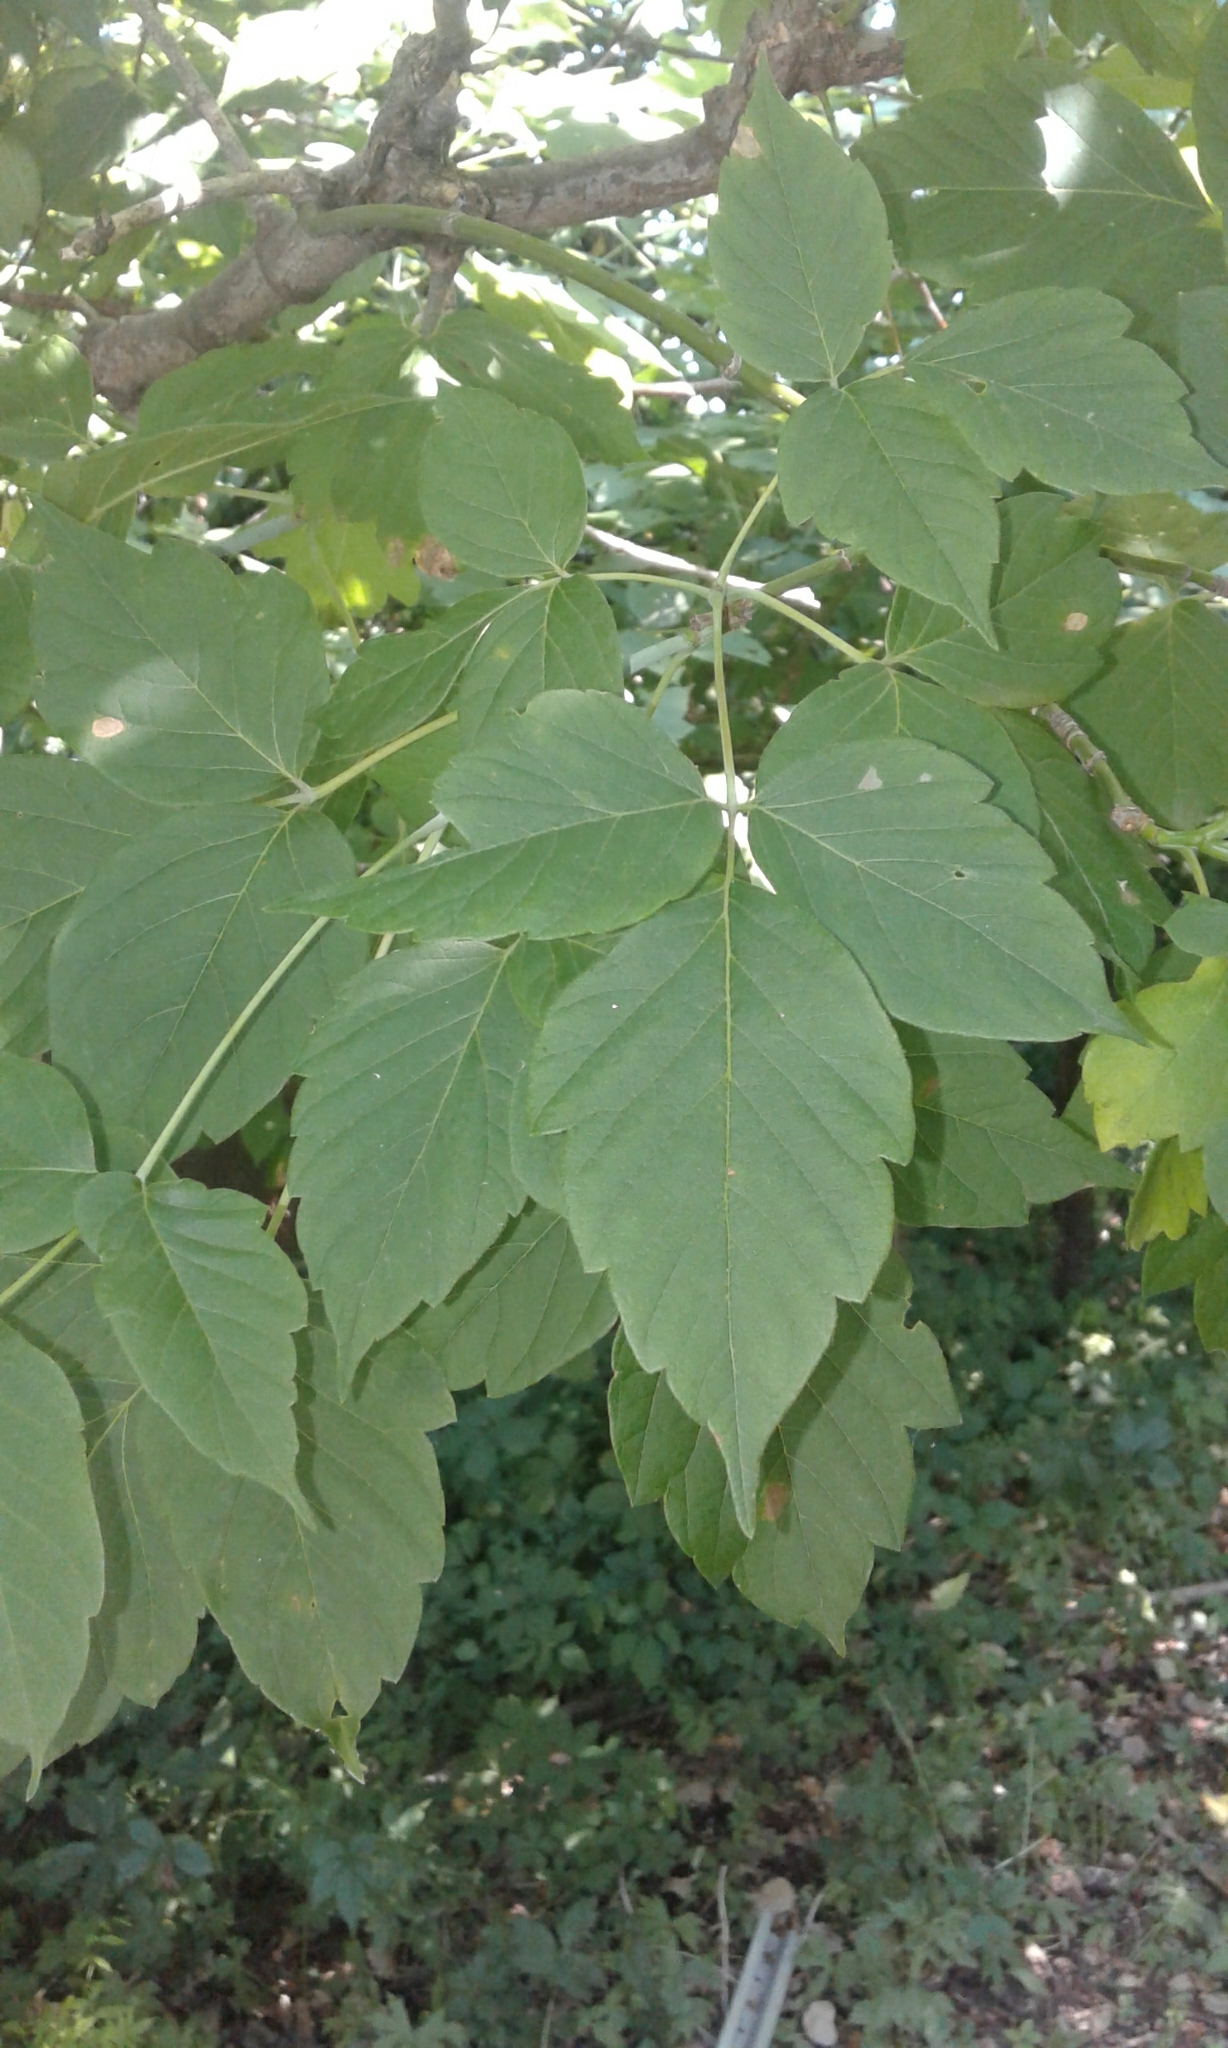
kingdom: Plantae
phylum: Tracheophyta
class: Magnoliopsida
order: Sapindales
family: Sapindaceae
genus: Acer
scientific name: Acer negundo
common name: Ashleaf maple
